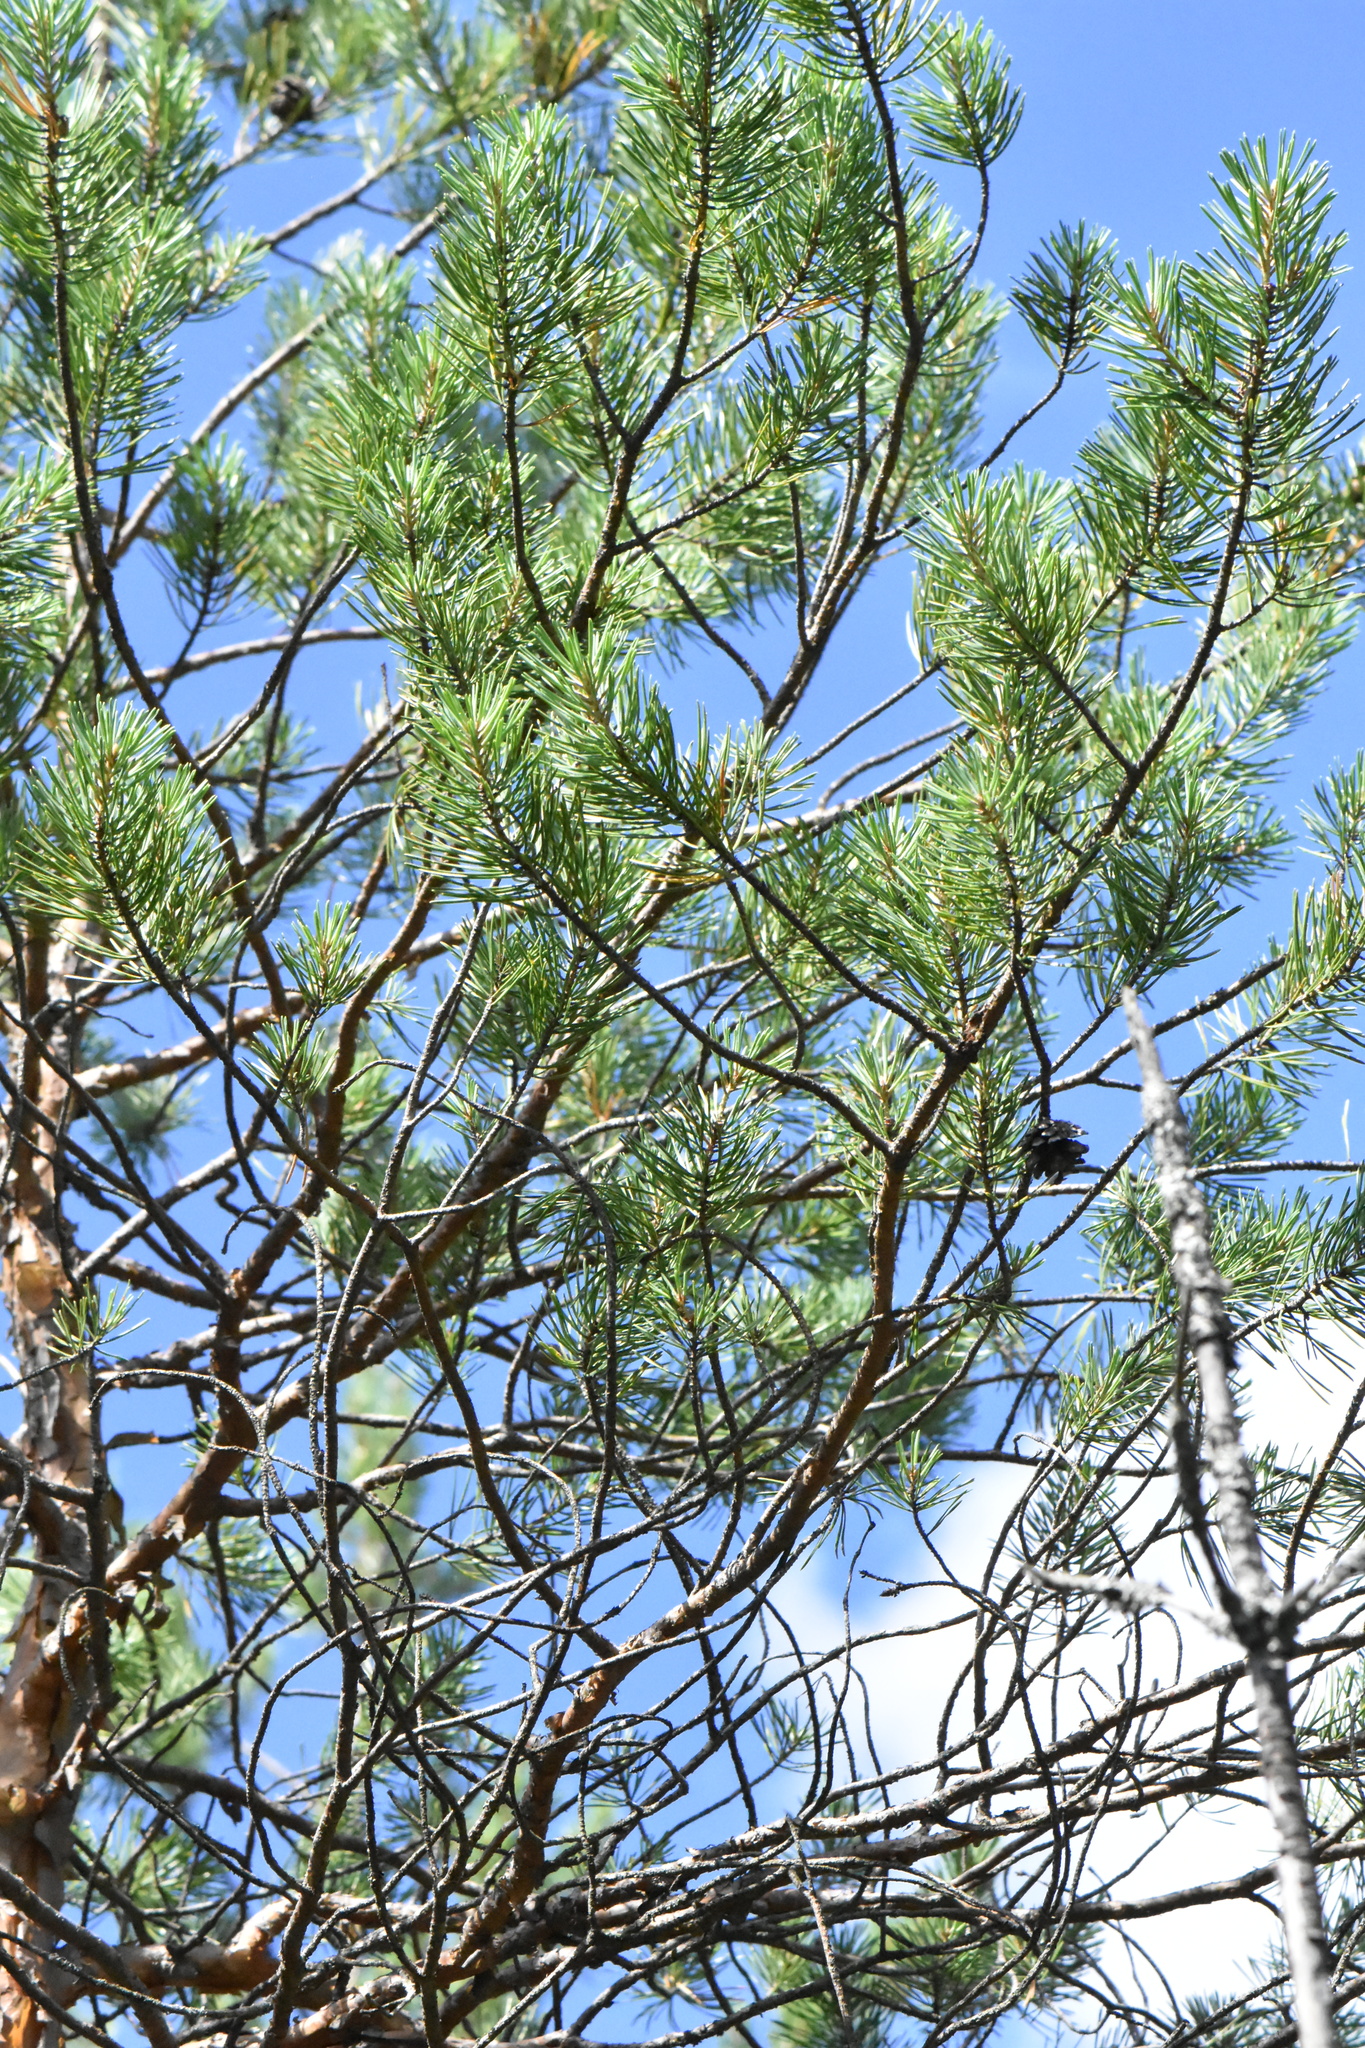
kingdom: Plantae
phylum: Tracheophyta
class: Pinopsida
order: Pinales
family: Pinaceae
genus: Pinus
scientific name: Pinus sylvestris
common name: Scots pine
